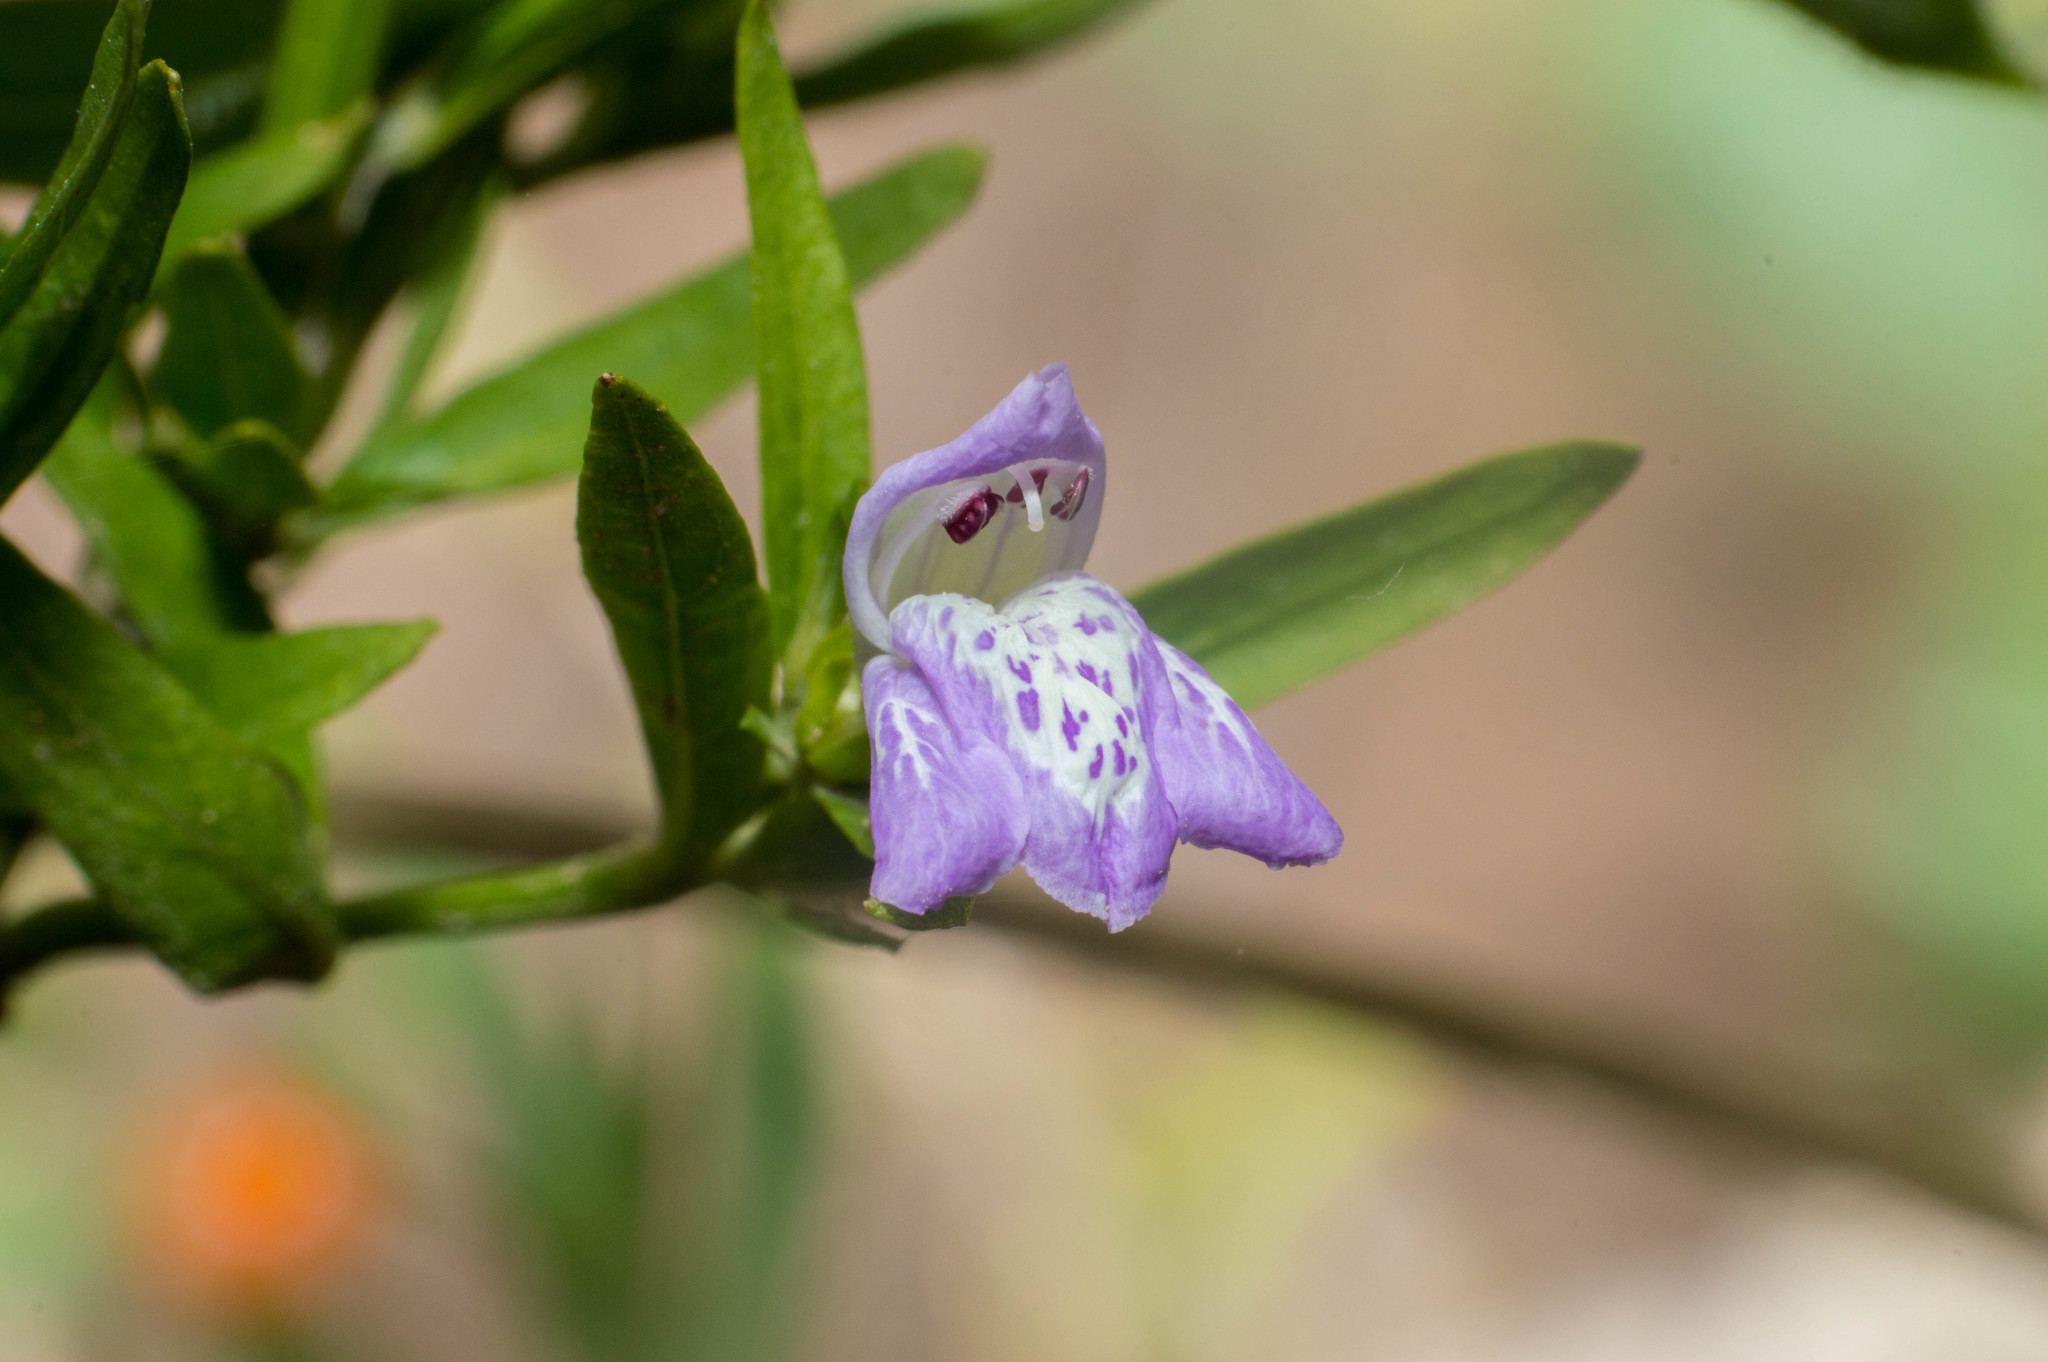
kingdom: Plantae
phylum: Tracheophyta
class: Magnoliopsida
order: Lamiales
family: Acanthaceae
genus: Poikilacanthus
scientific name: Poikilacanthus tweedianus
